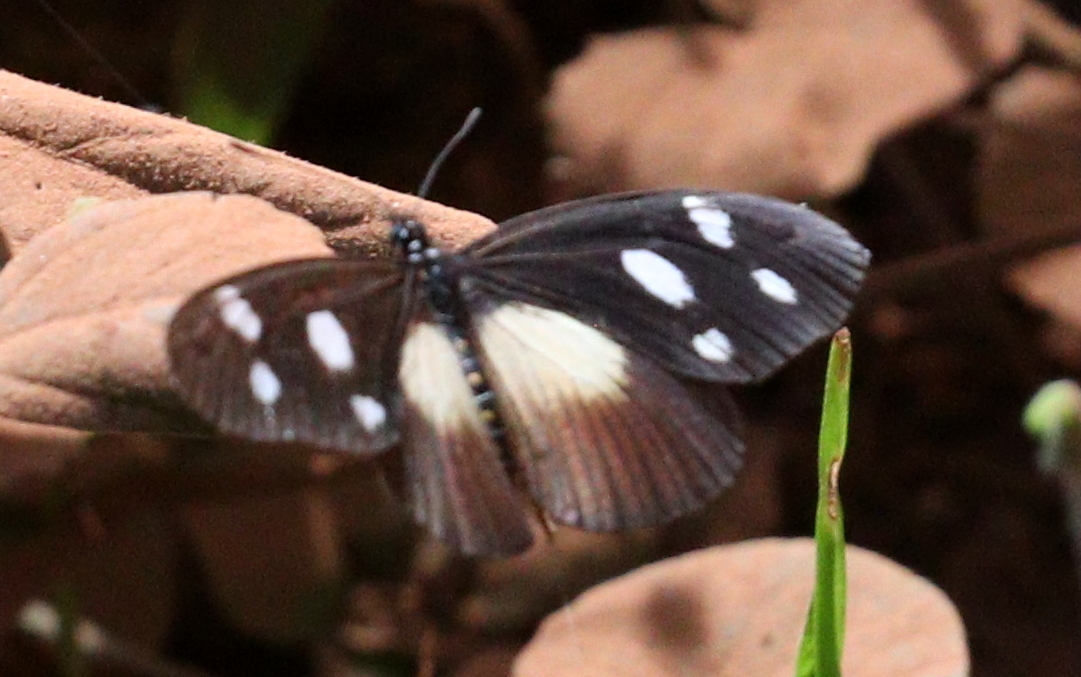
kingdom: Animalia
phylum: Arthropoda
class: Insecta
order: Lepidoptera
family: Nymphalidae
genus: Acraea
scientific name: Acraea Telchinia lycoa
